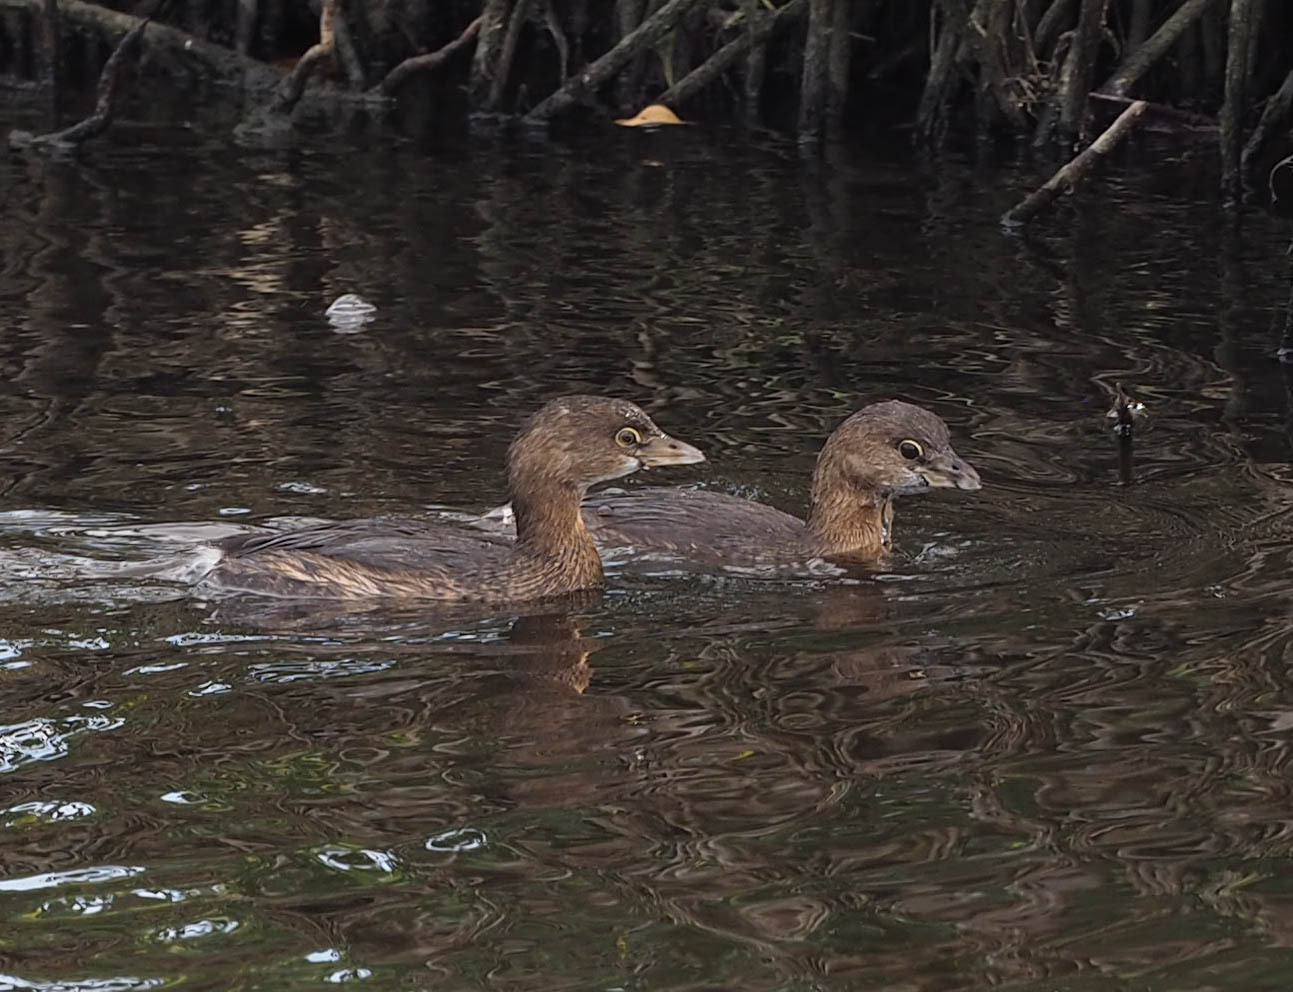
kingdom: Animalia
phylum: Chordata
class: Aves
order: Podicipediformes
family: Podicipedidae
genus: Podilymbus
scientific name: Podilymbus podiceps
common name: Pied-billed grebe
